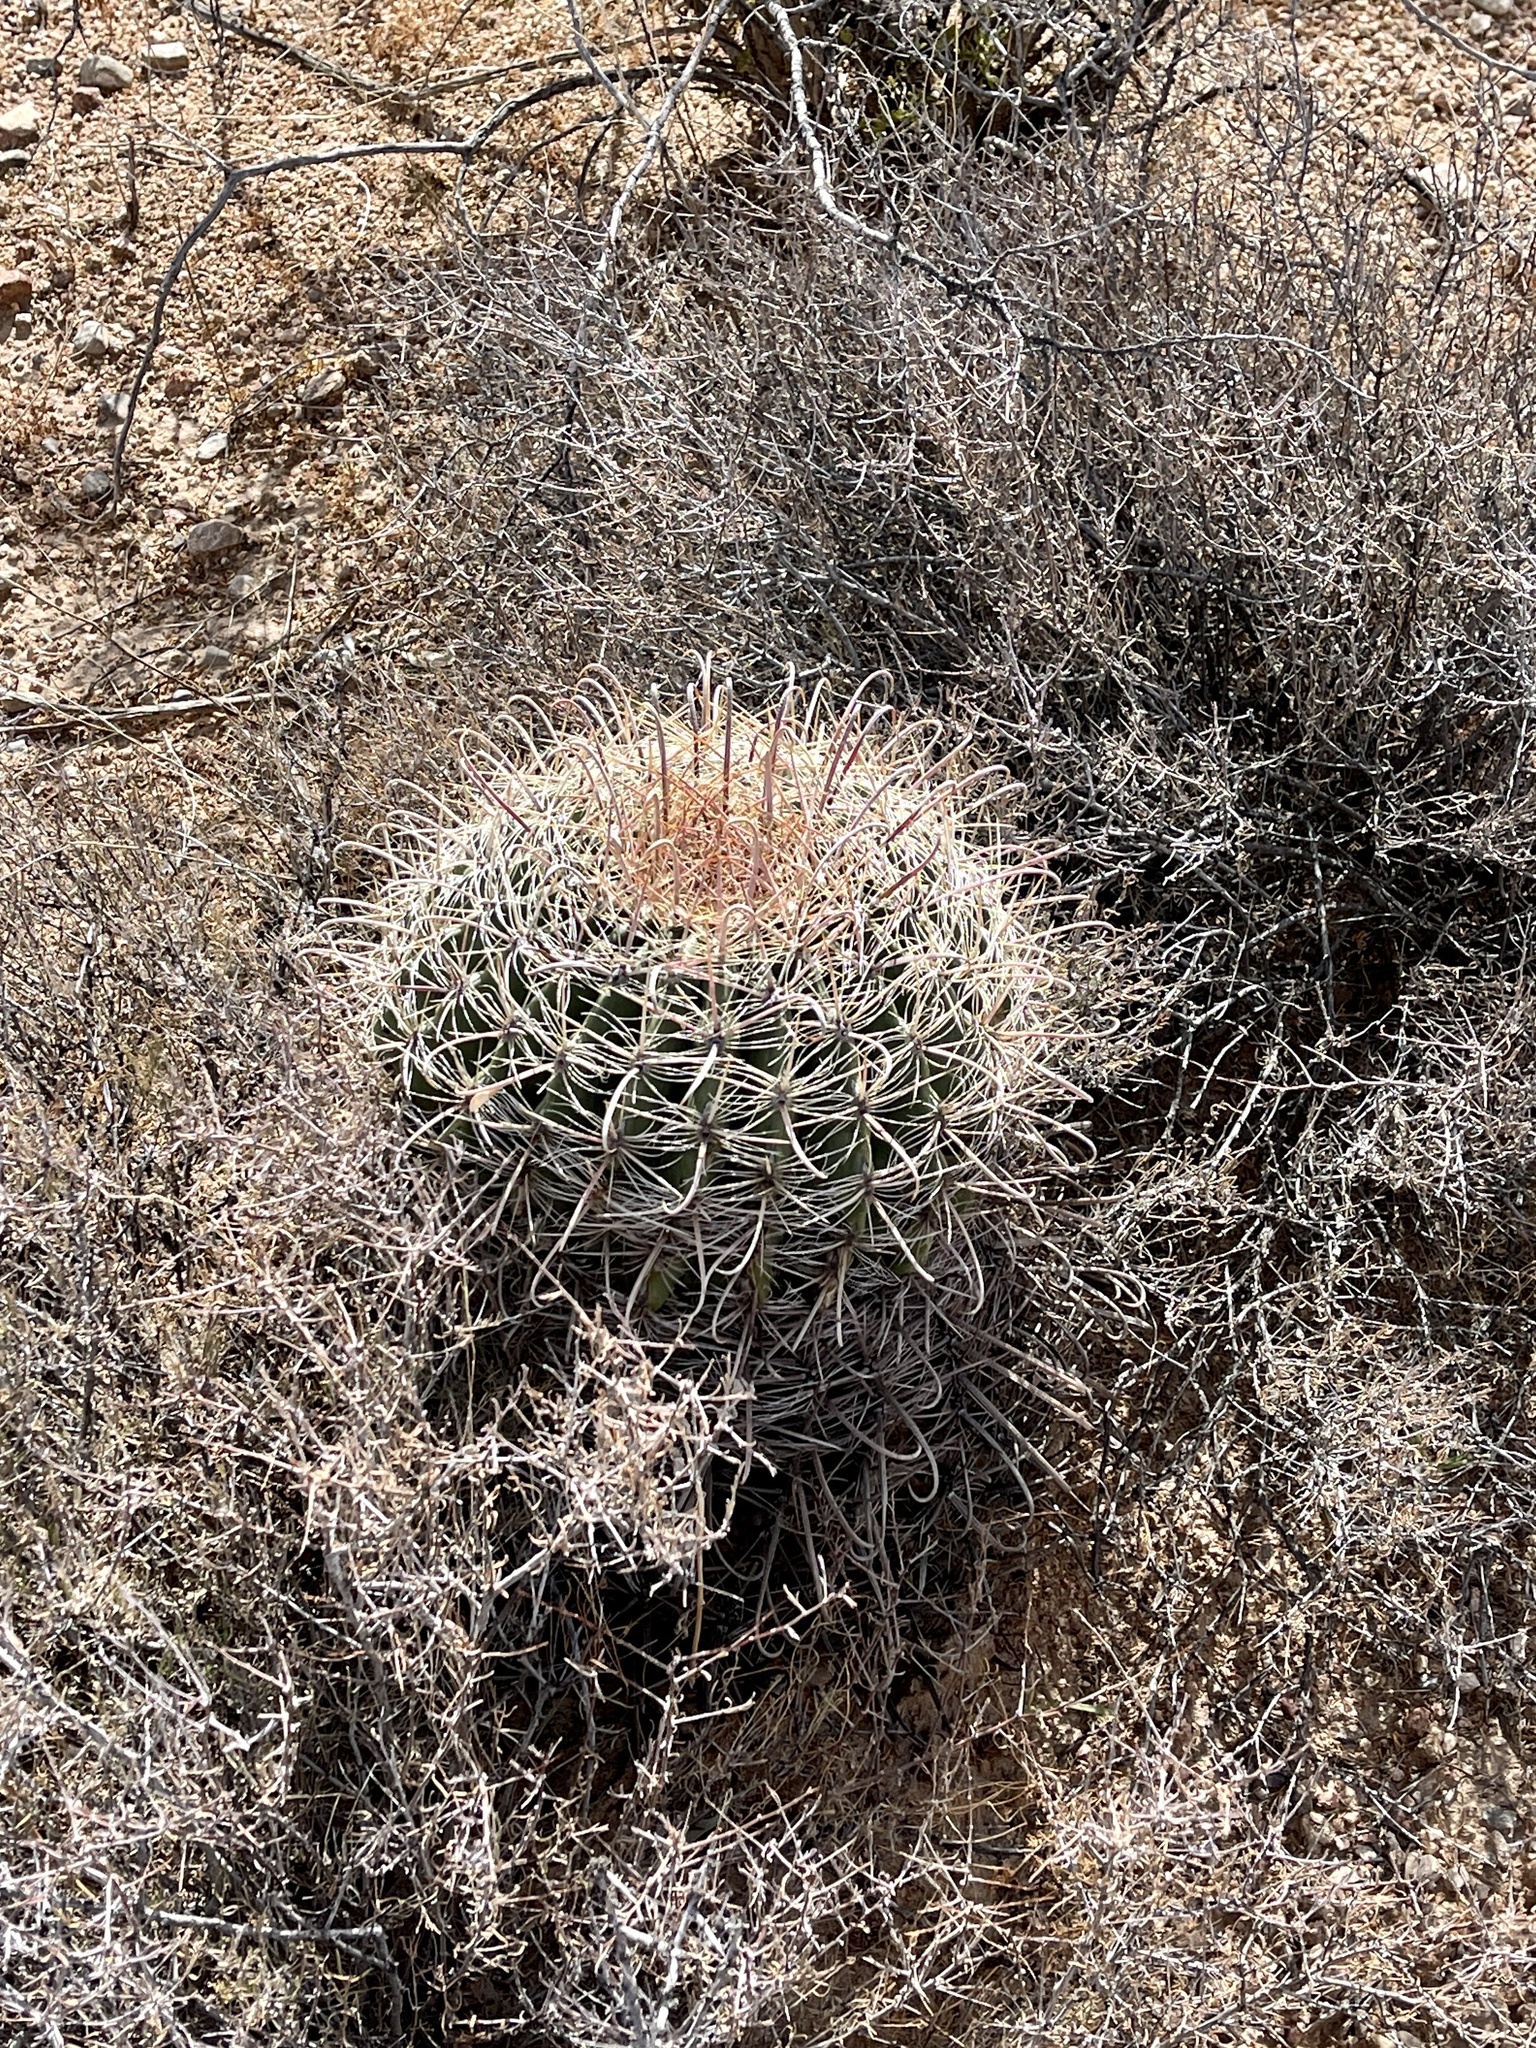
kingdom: Plantae
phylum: Tracheophyta
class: Magnoliopsida
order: Caryophyllales
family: Cactaceae
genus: Ferocactus
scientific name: Ferocactus wislizeni
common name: Candy barrel cactus
